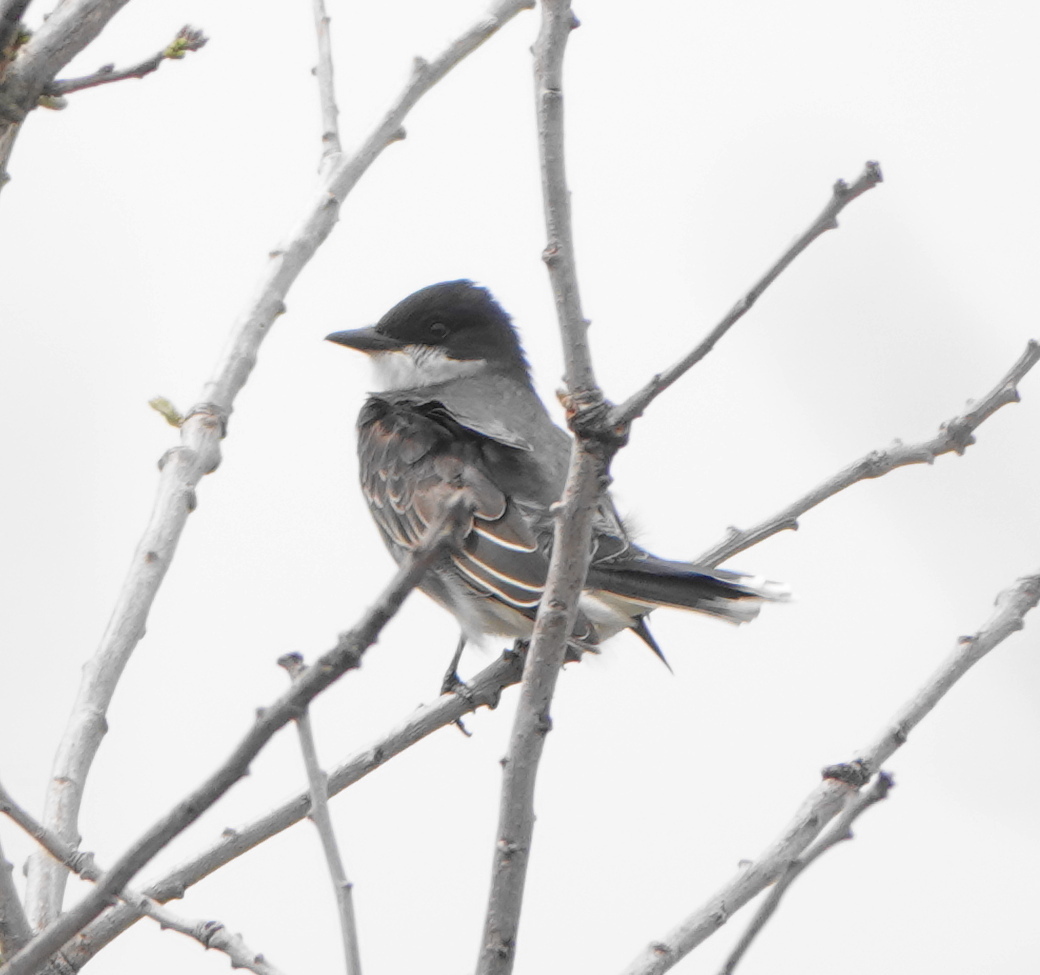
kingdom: Animalia
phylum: Chordata
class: Aves
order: Passeriformes
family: Tyrannidae
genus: Tyrannus
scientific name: Tyrannus tyrannus
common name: Eastern kingbird
